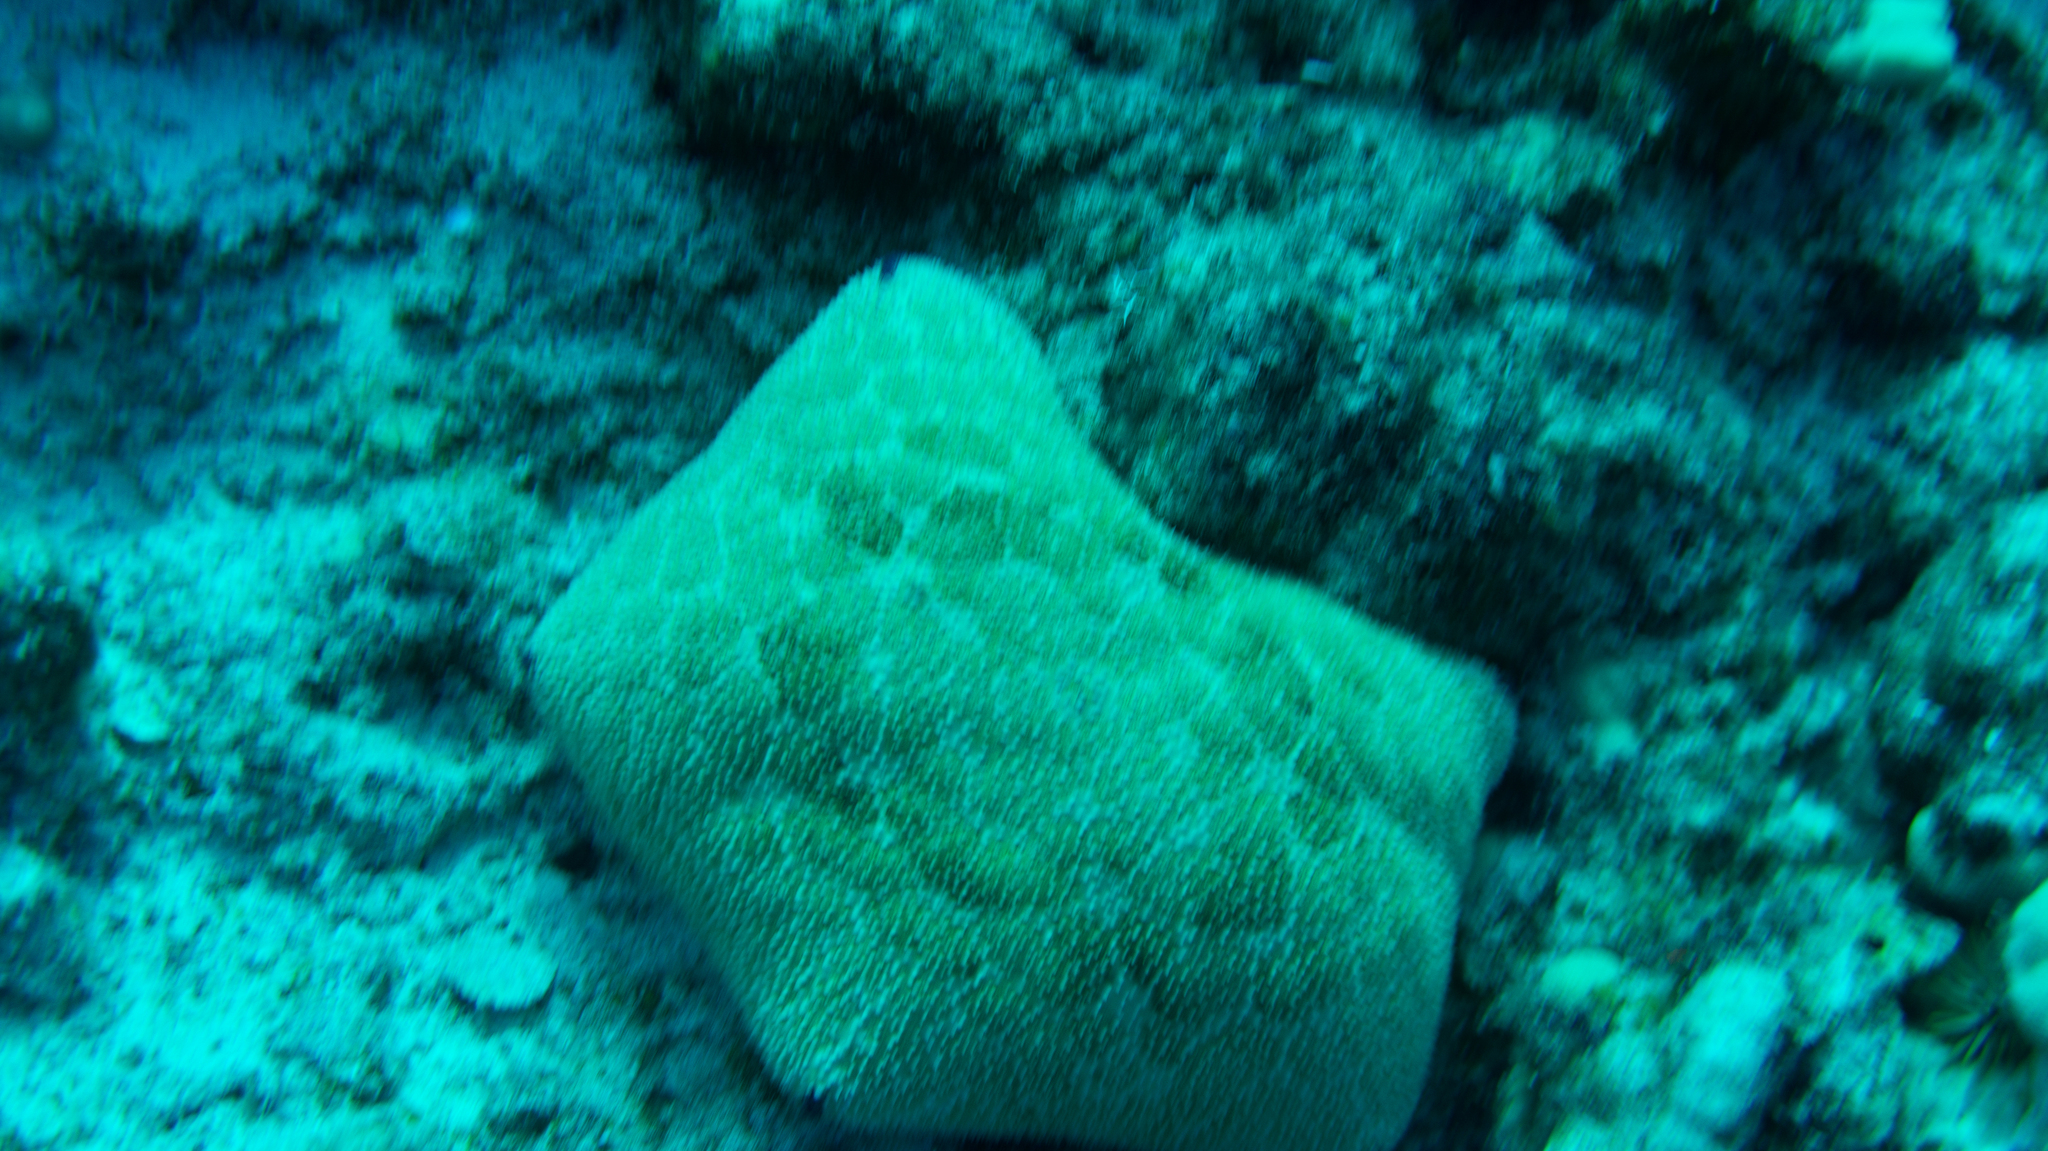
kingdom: Animalia
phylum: Echinodermata
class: Asteroidea
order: Valvatida
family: Oreasteridae
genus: Culcita
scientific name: Culcita novaeguineae
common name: Cushion star
